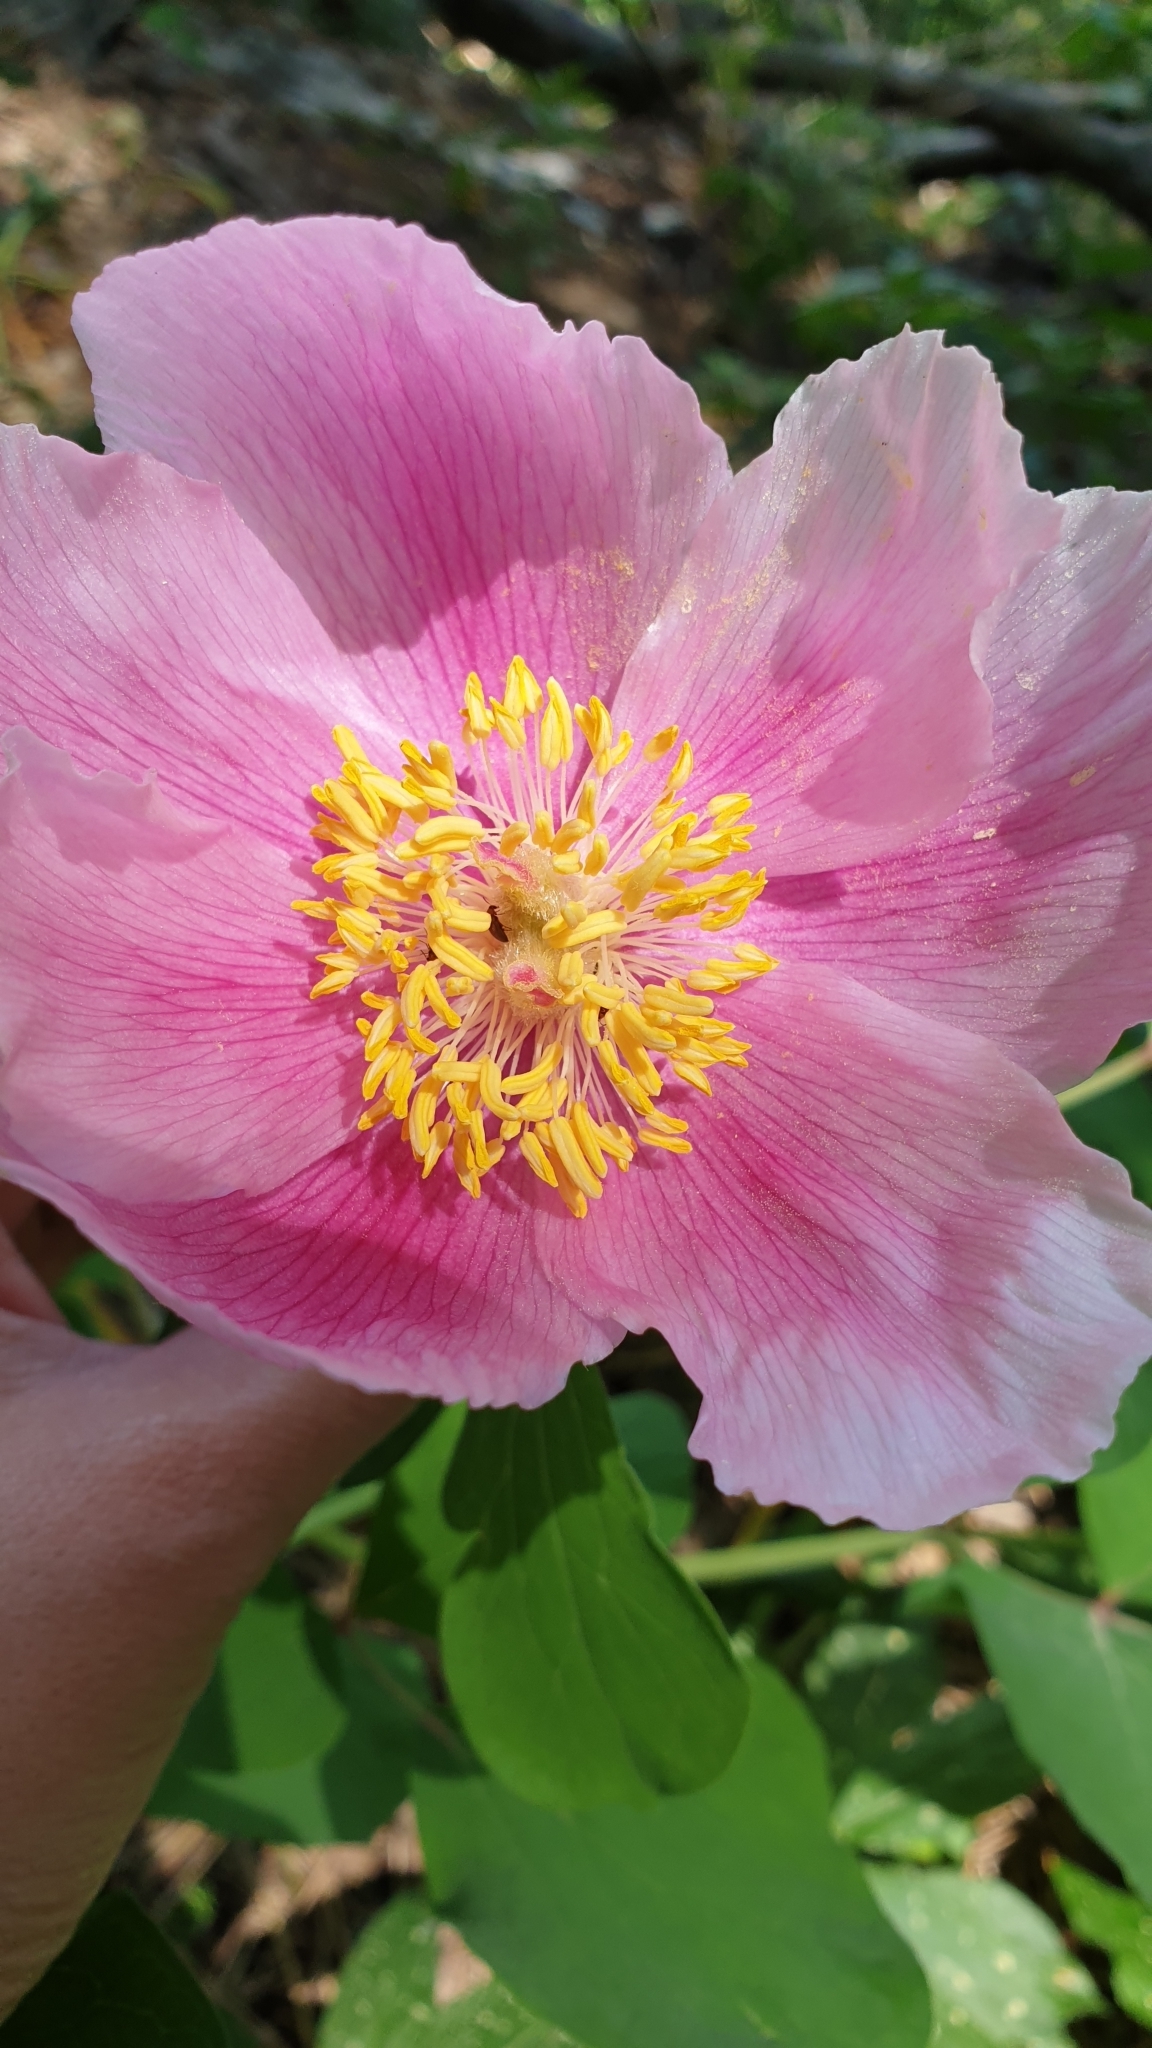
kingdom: Plantae
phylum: Tracheophyta
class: Magnoliopsida
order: Saxifragales
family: Paeoniaceae
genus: Paeonia
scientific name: Paeonia daurica
